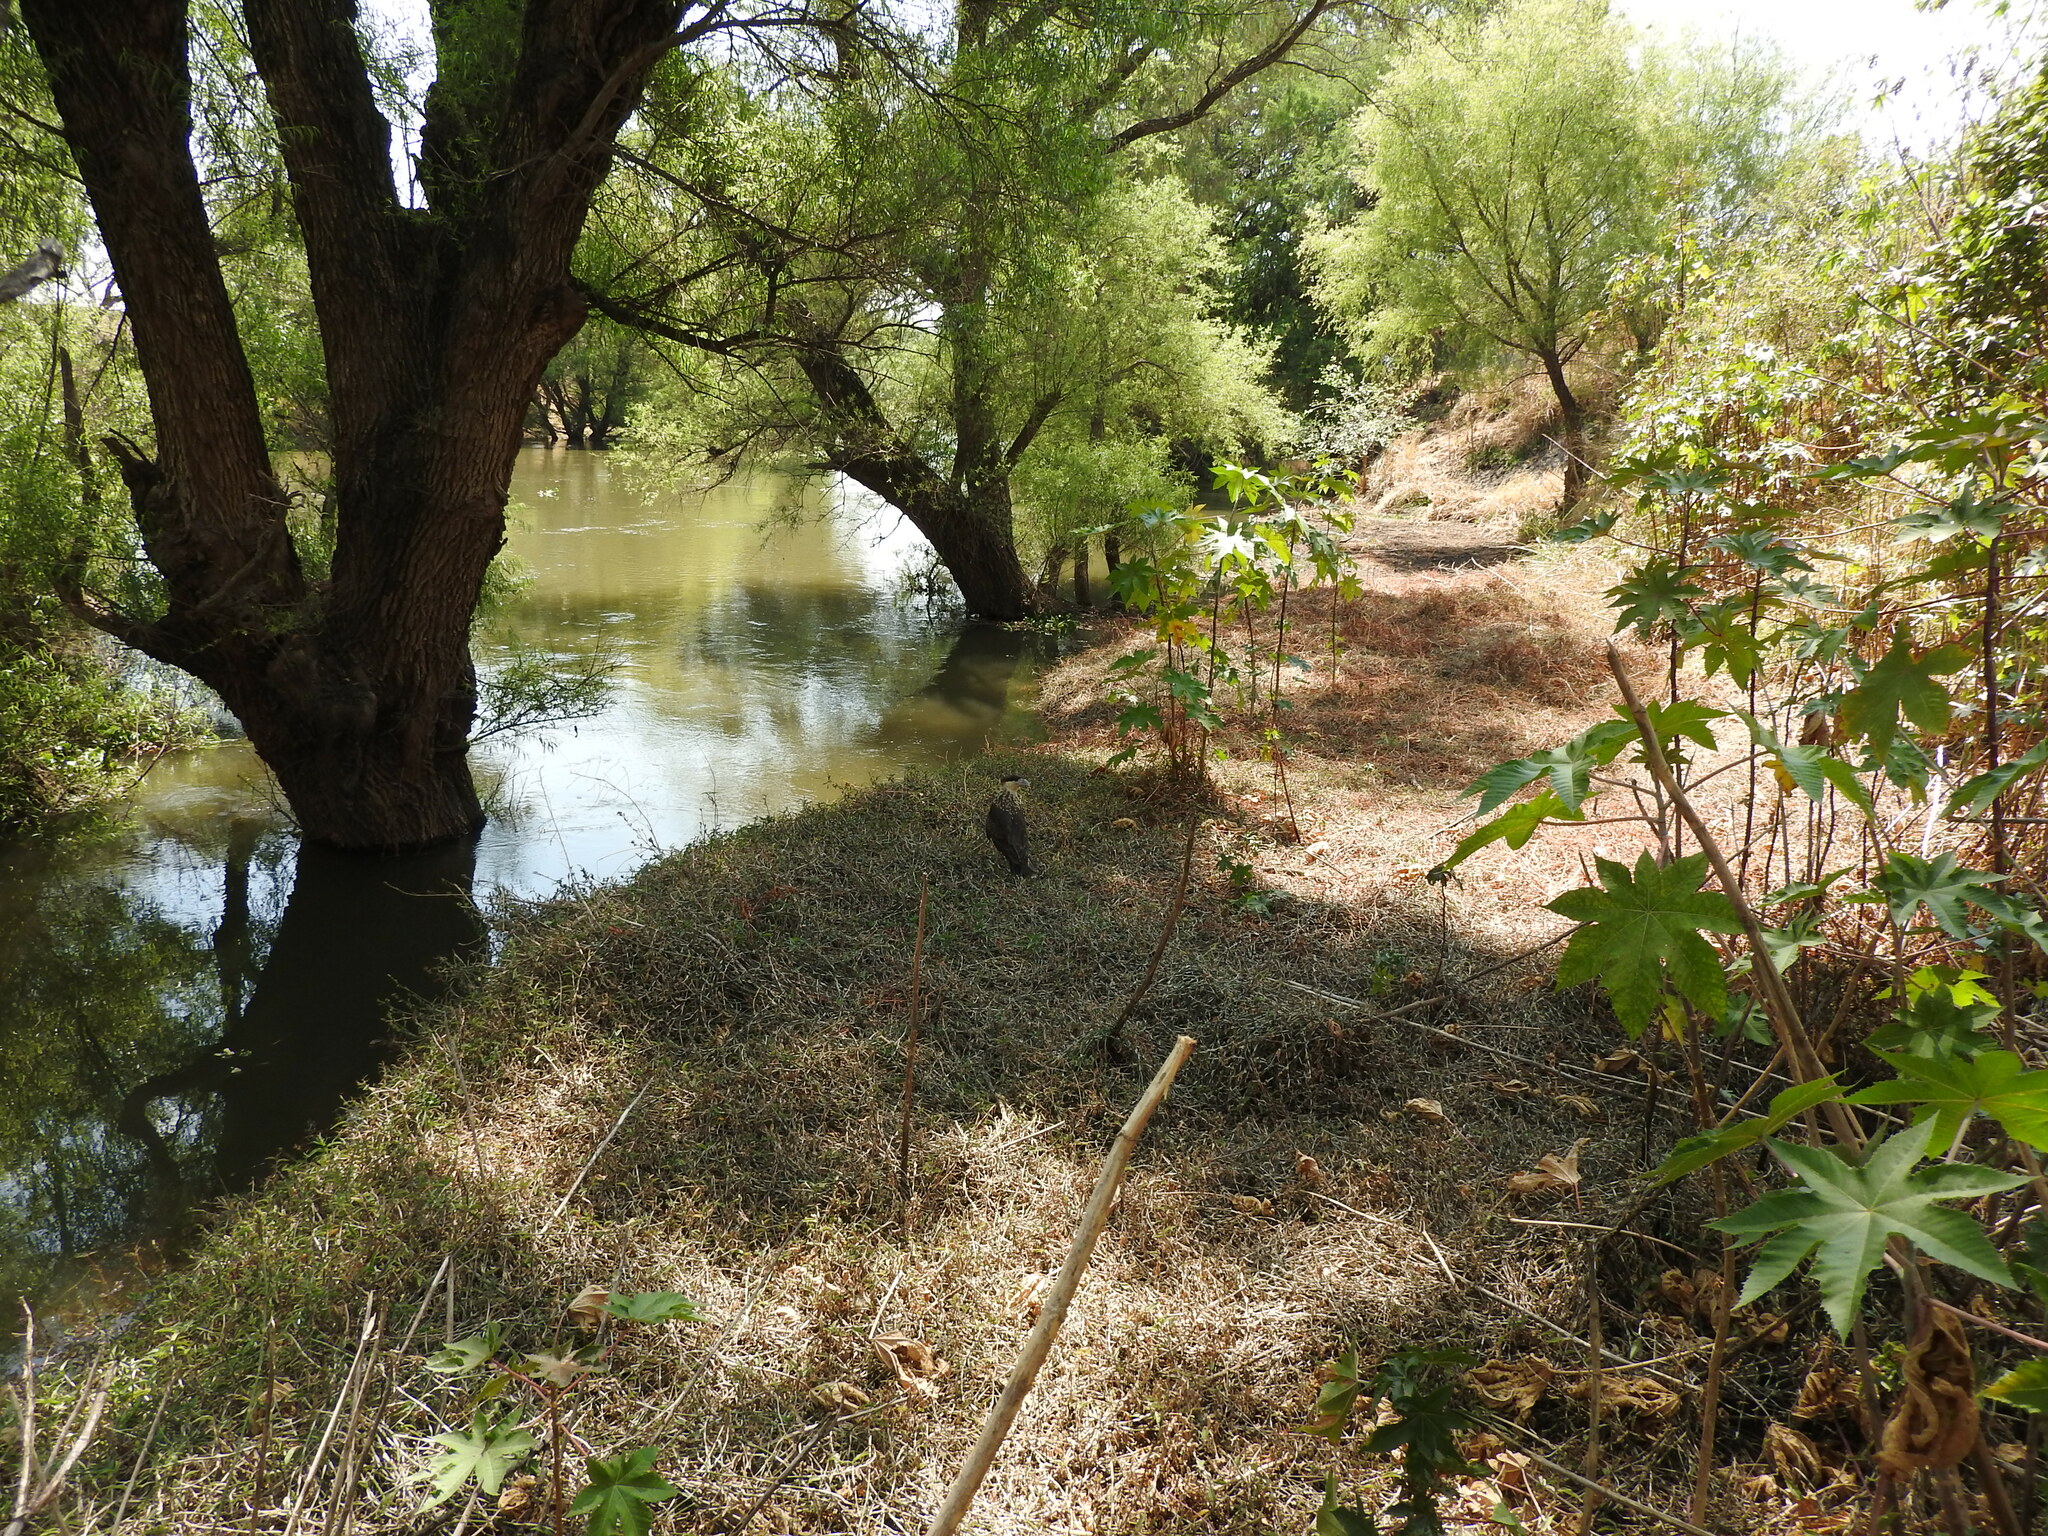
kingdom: Animalia
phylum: Chordata
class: Aves
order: Falconiformes
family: Falconidae
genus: Caracara
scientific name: Caracara plancus
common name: Southern caracara
